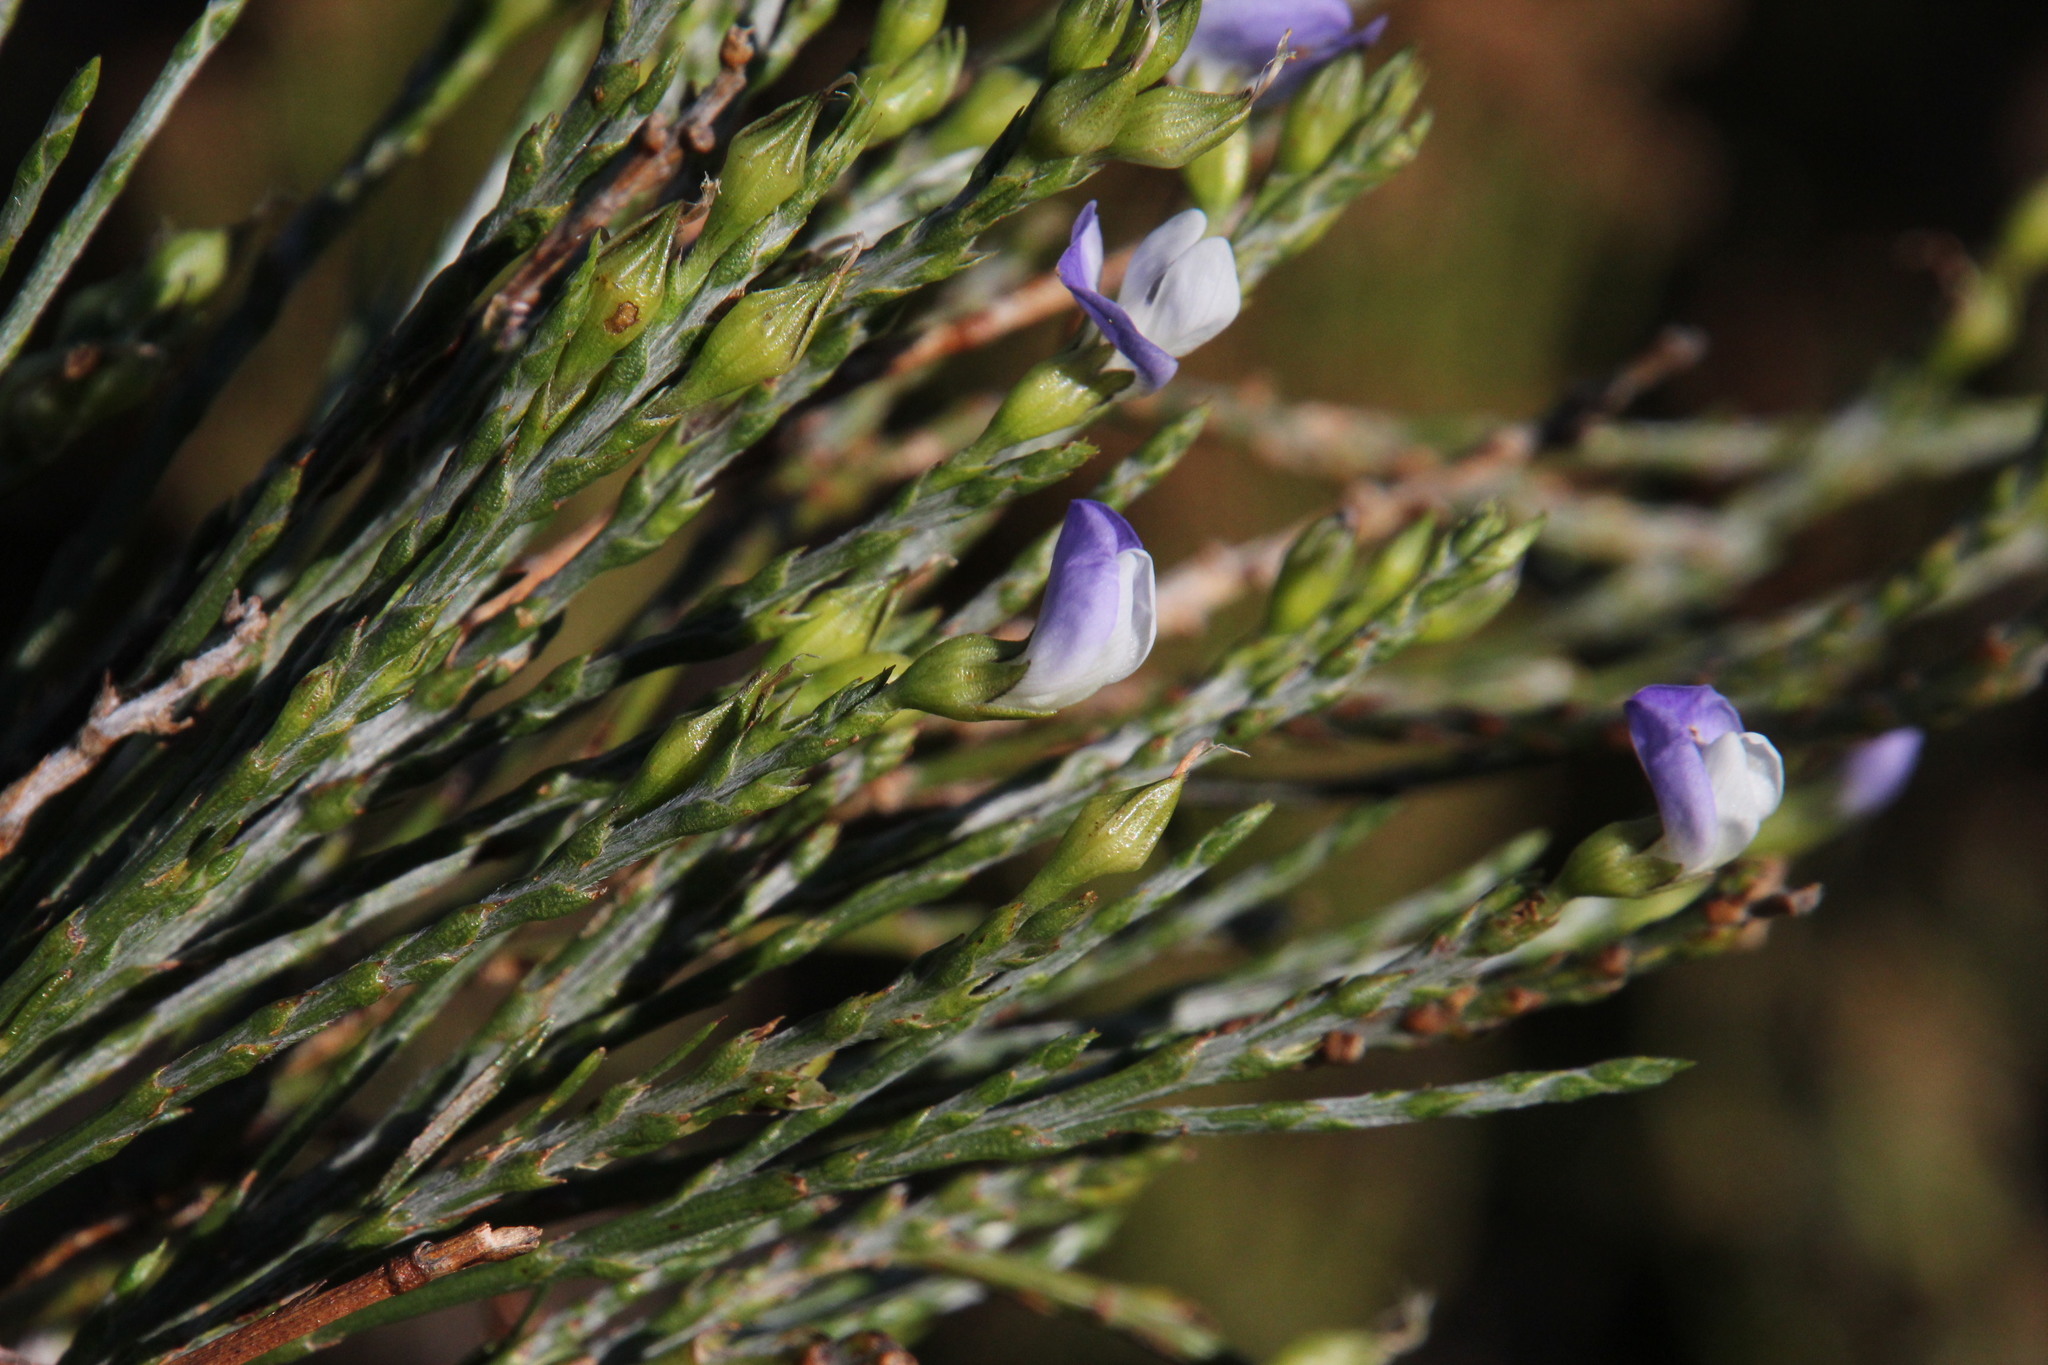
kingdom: Plantae
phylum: Tracheophyta
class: Magnoliopsida
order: Fabales
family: Fabaceae
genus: Psoralea
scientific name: Psoralea aphylla
